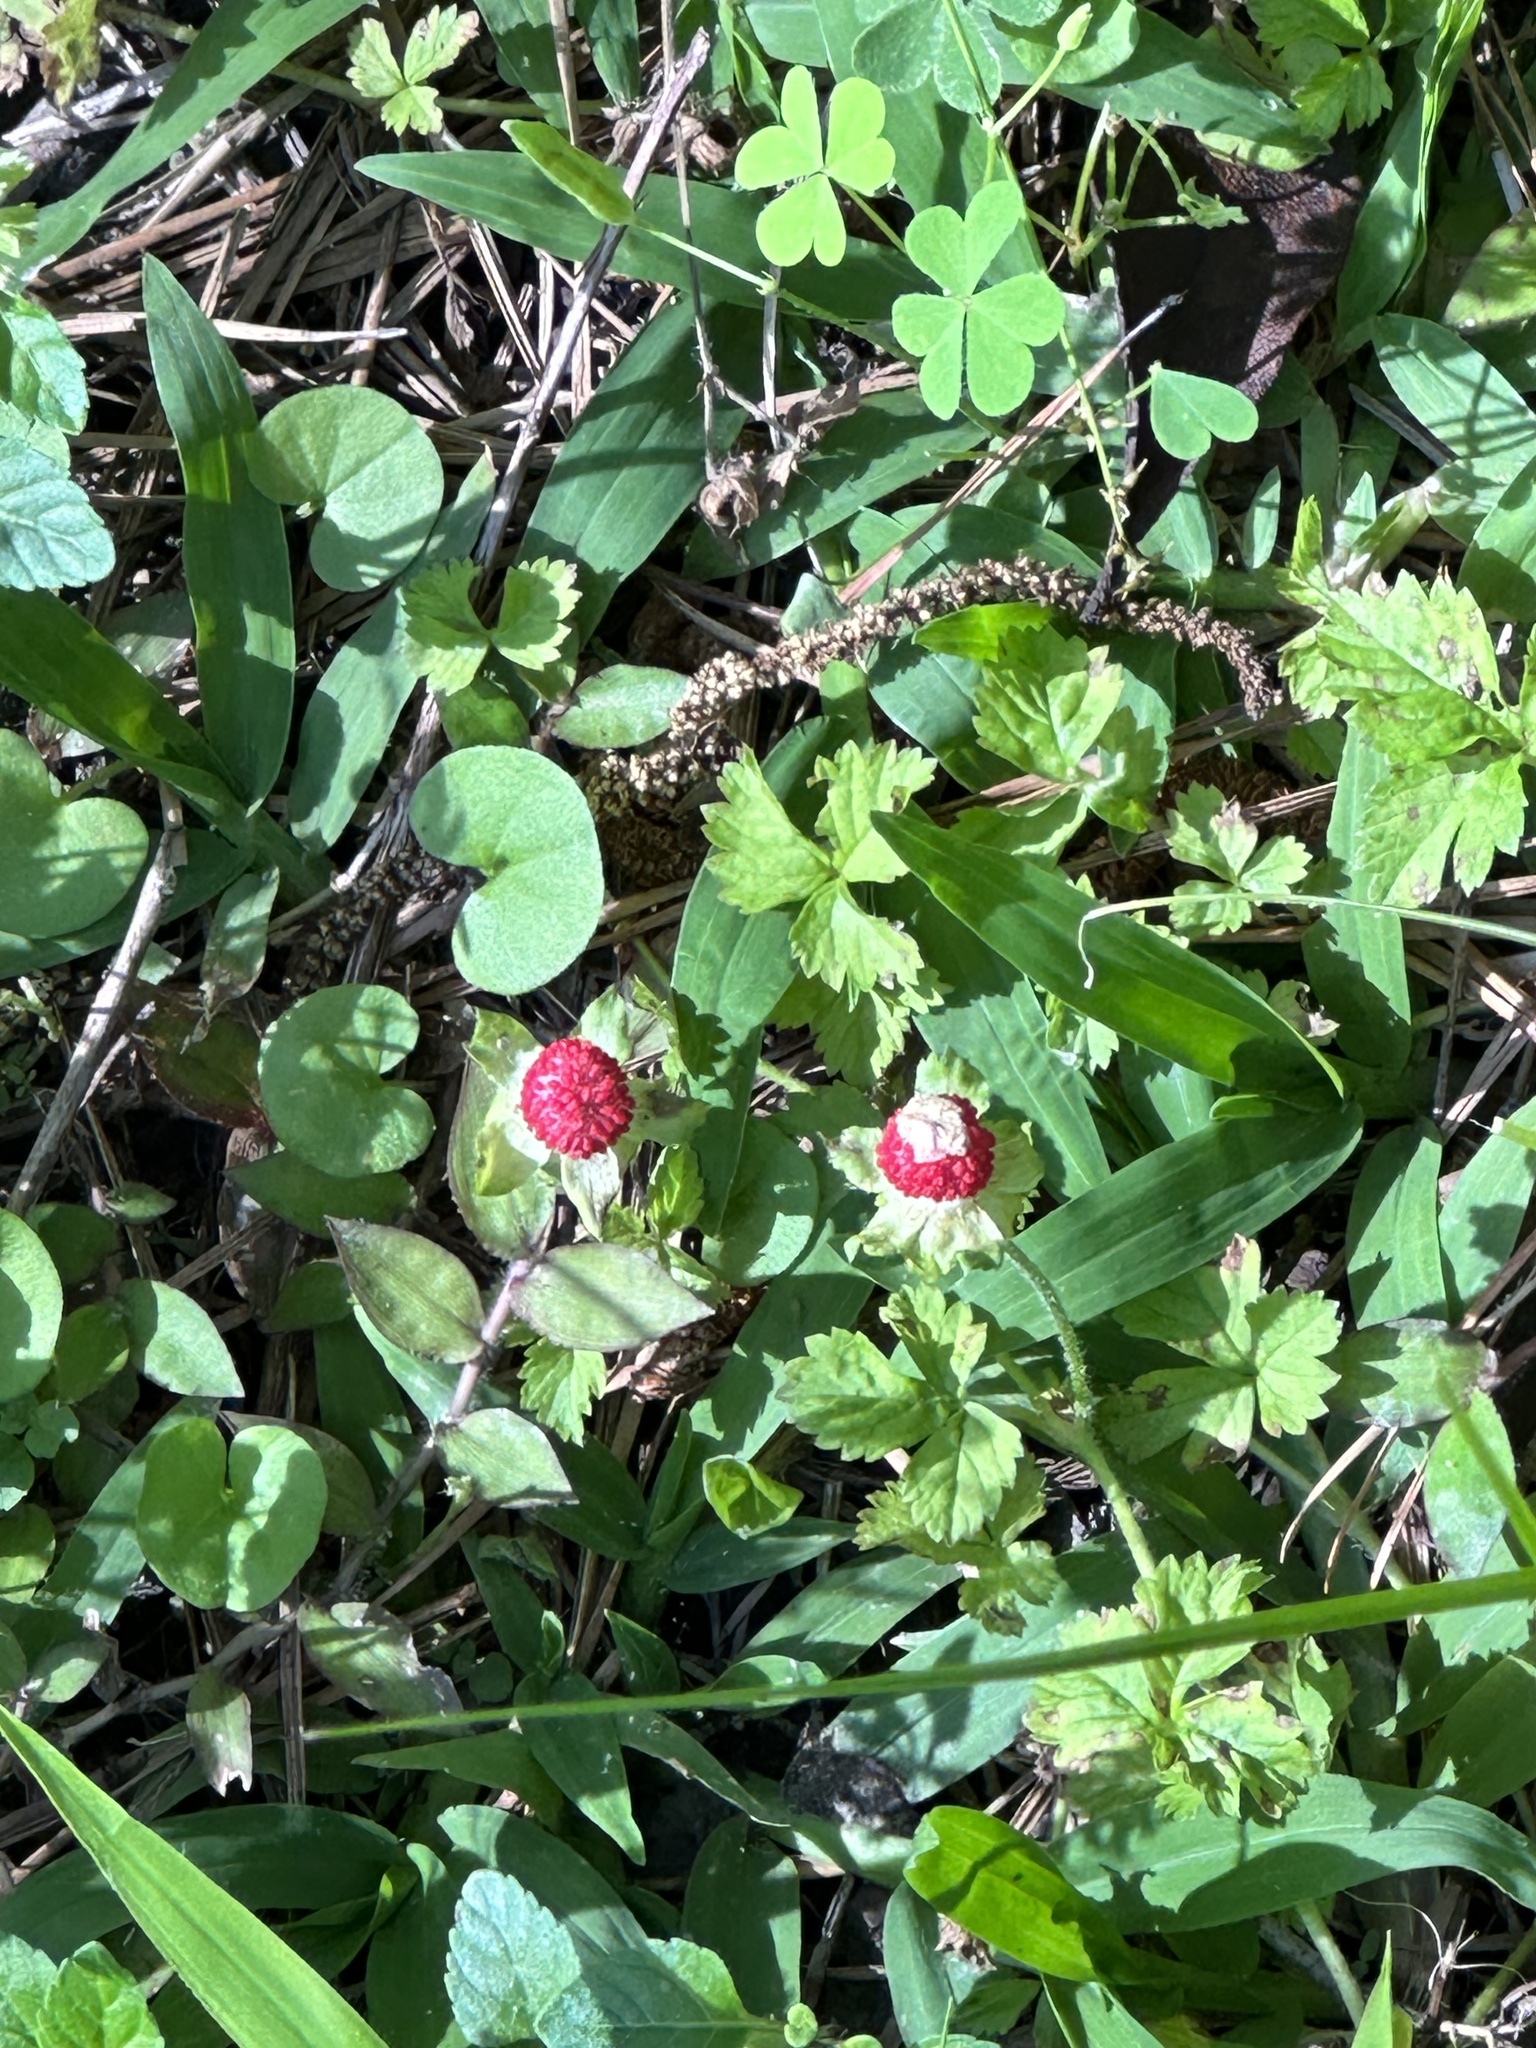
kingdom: Plantae
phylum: Tracheophyta
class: Magnoliopsida
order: Rosales
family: Rosaceae
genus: Potentilla
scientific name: Potentilla indica
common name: Yellow-flowered strawberry
